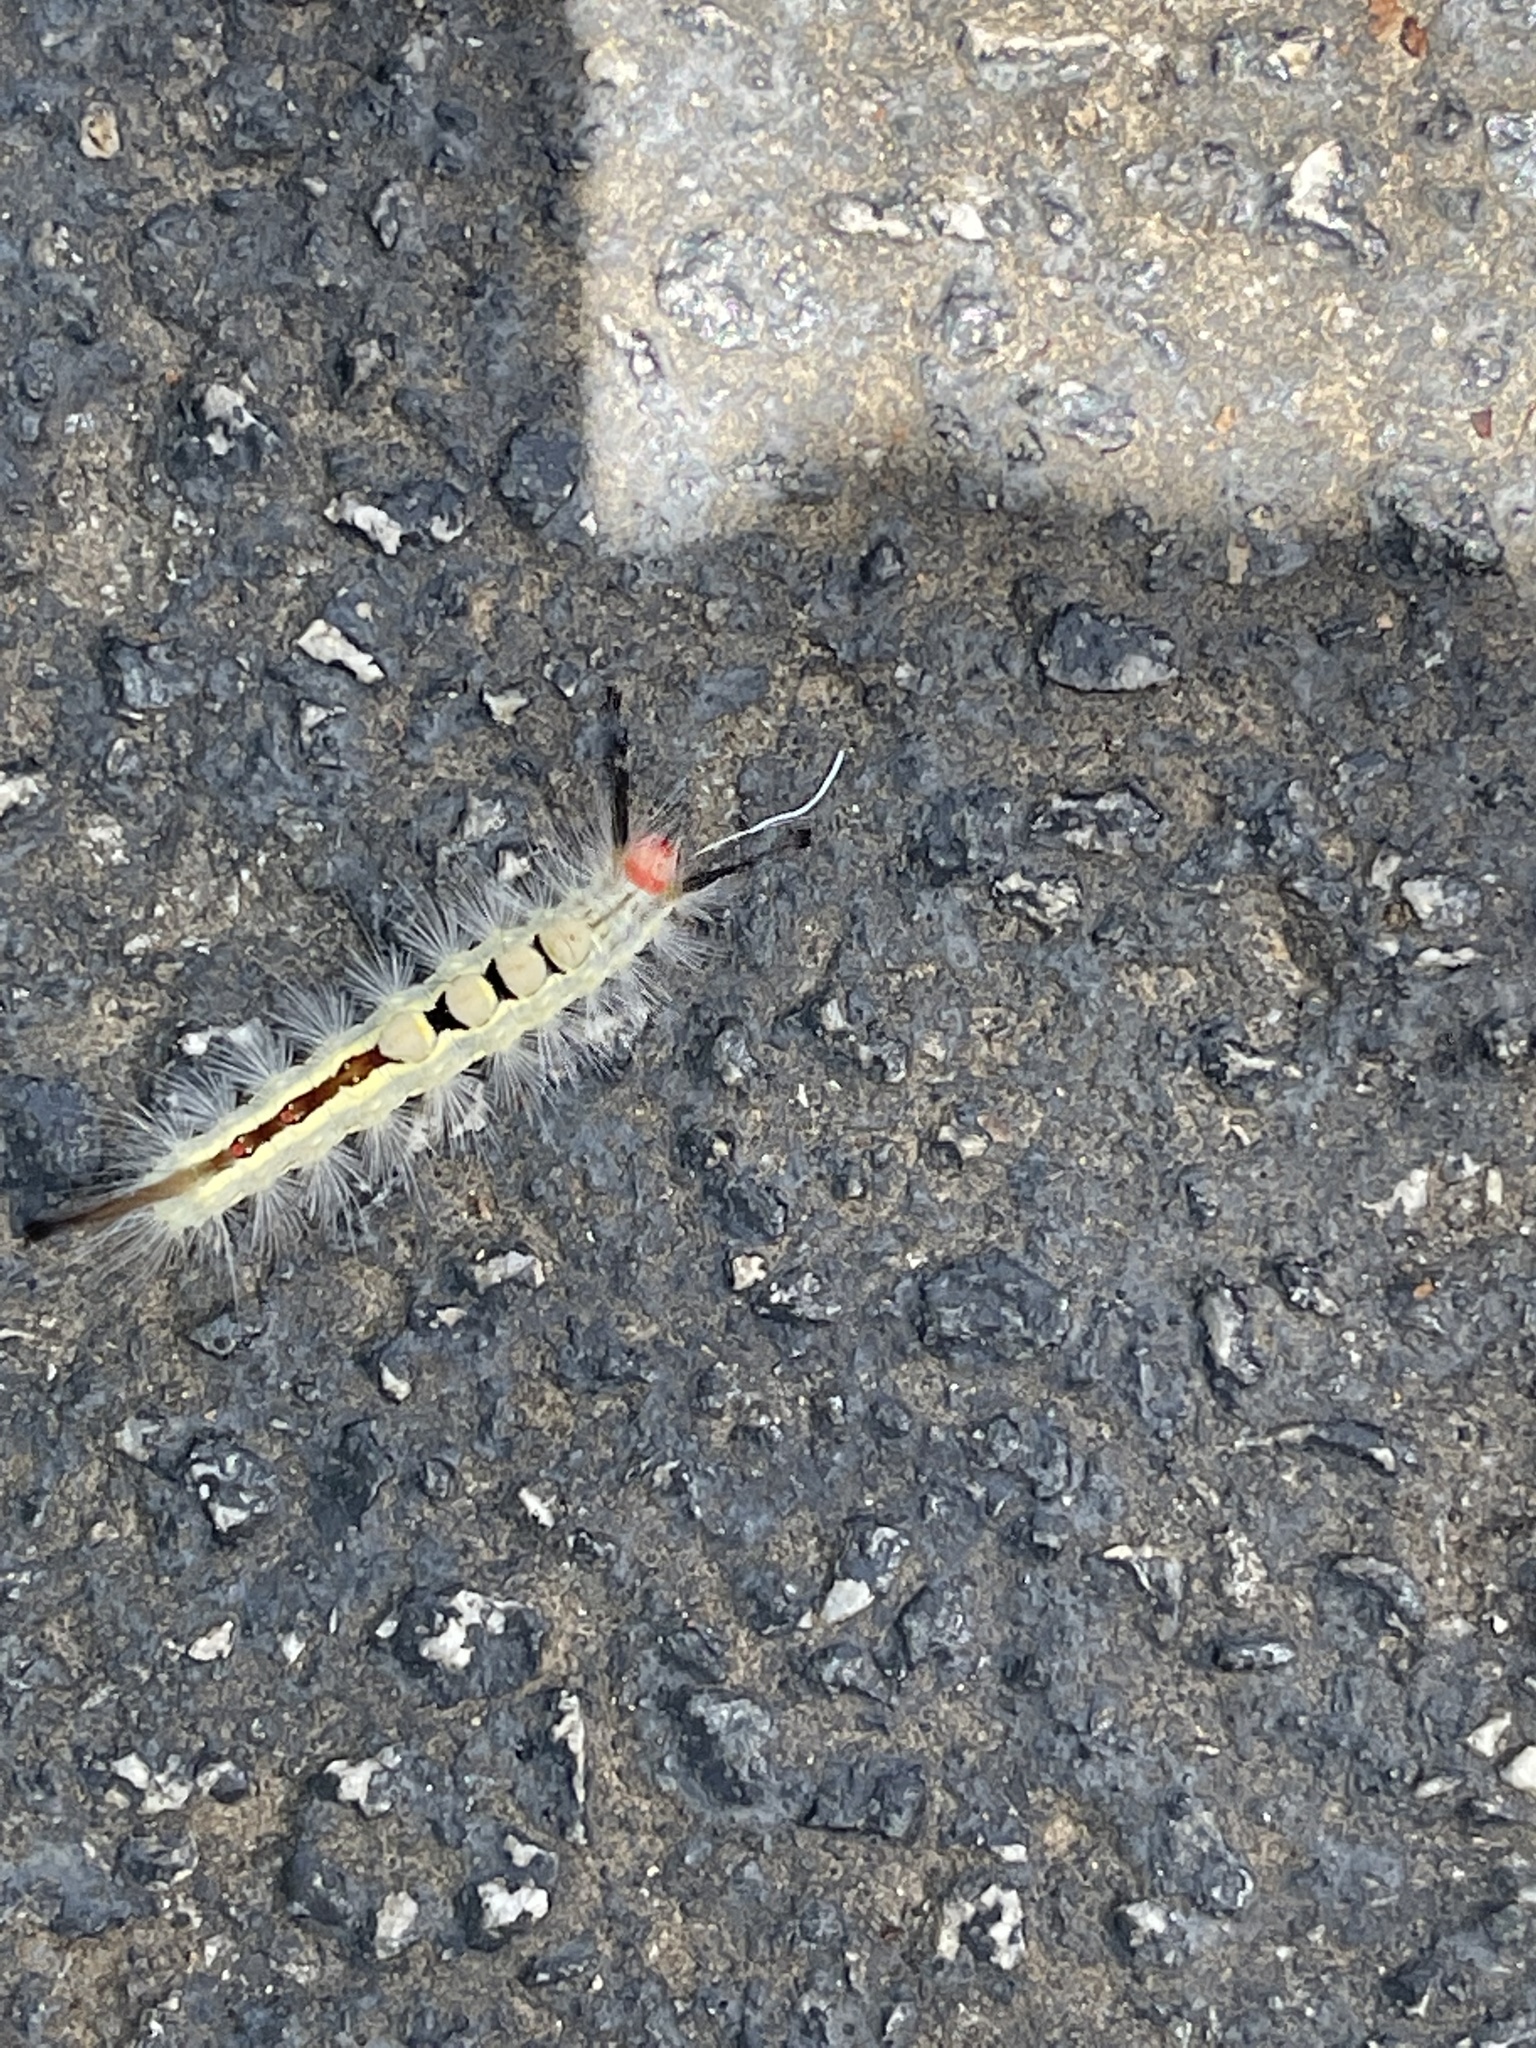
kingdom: Animalia
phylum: Arthropoda
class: Insecta
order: Lepidoptera
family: Erebidae
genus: Orgyia
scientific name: Orgyia leucostigma
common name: White-marked tussock moth
